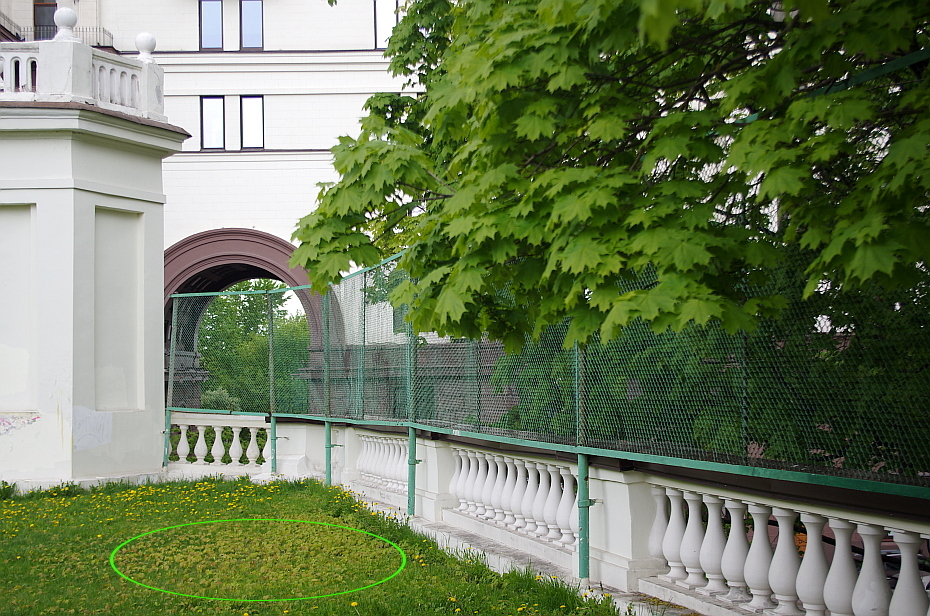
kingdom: Plantae
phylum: Tracheophyta
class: Magnoliopsida
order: Sapindales
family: Sapindaceae
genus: Acer
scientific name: Acer platanoides
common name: Norway maple
